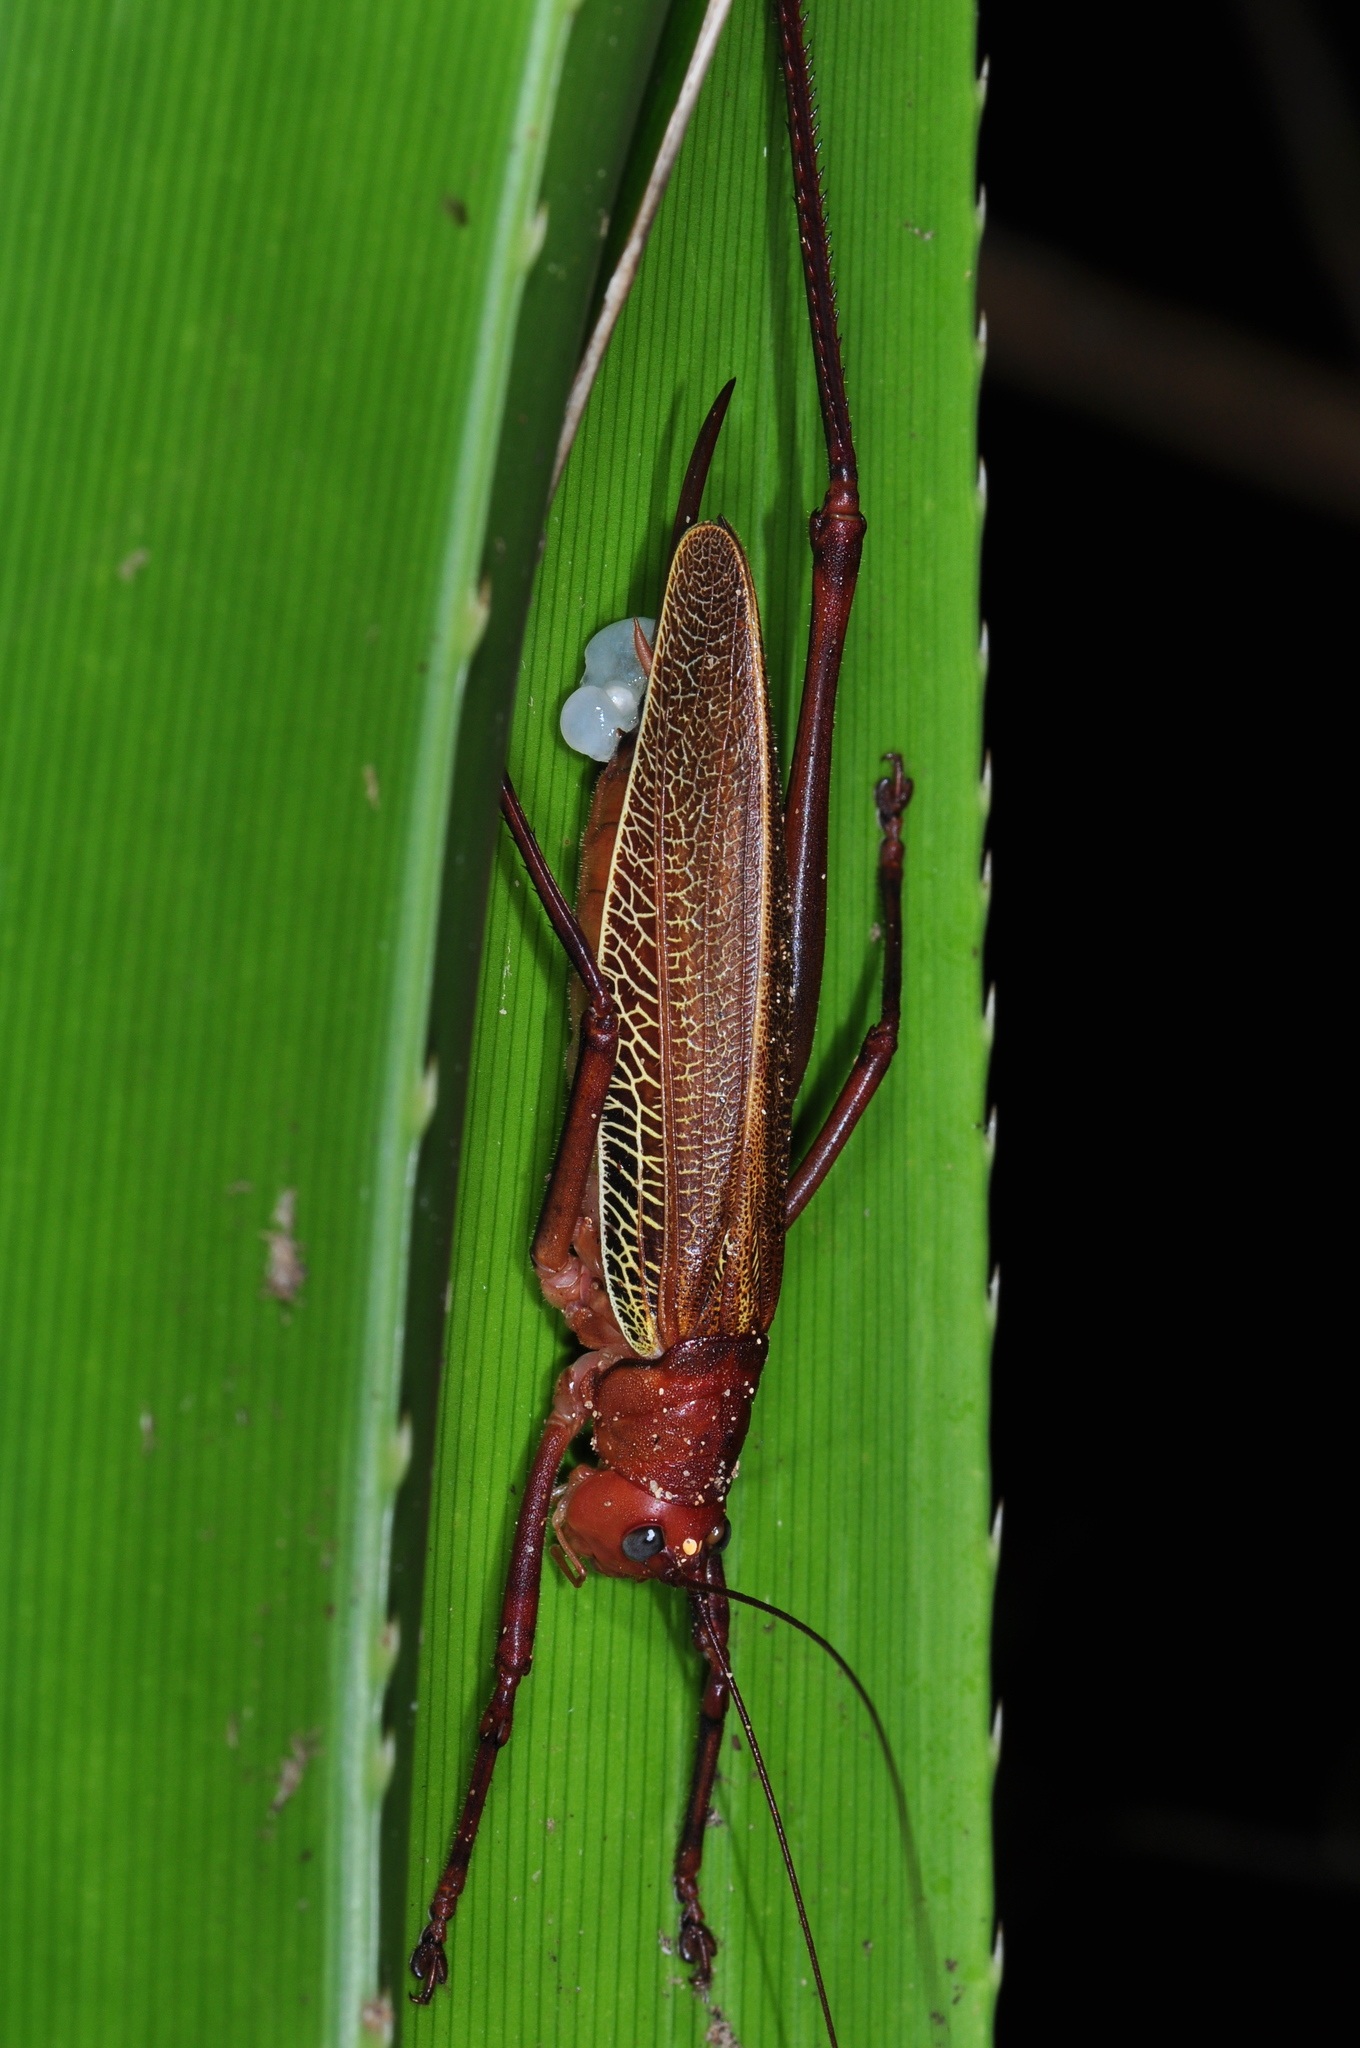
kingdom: Animalia
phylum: Arthropoda
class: Insecta
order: Orthoptera
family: Tettigoniidae
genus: Ischnomela
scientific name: Ischnomela pulchripennis
